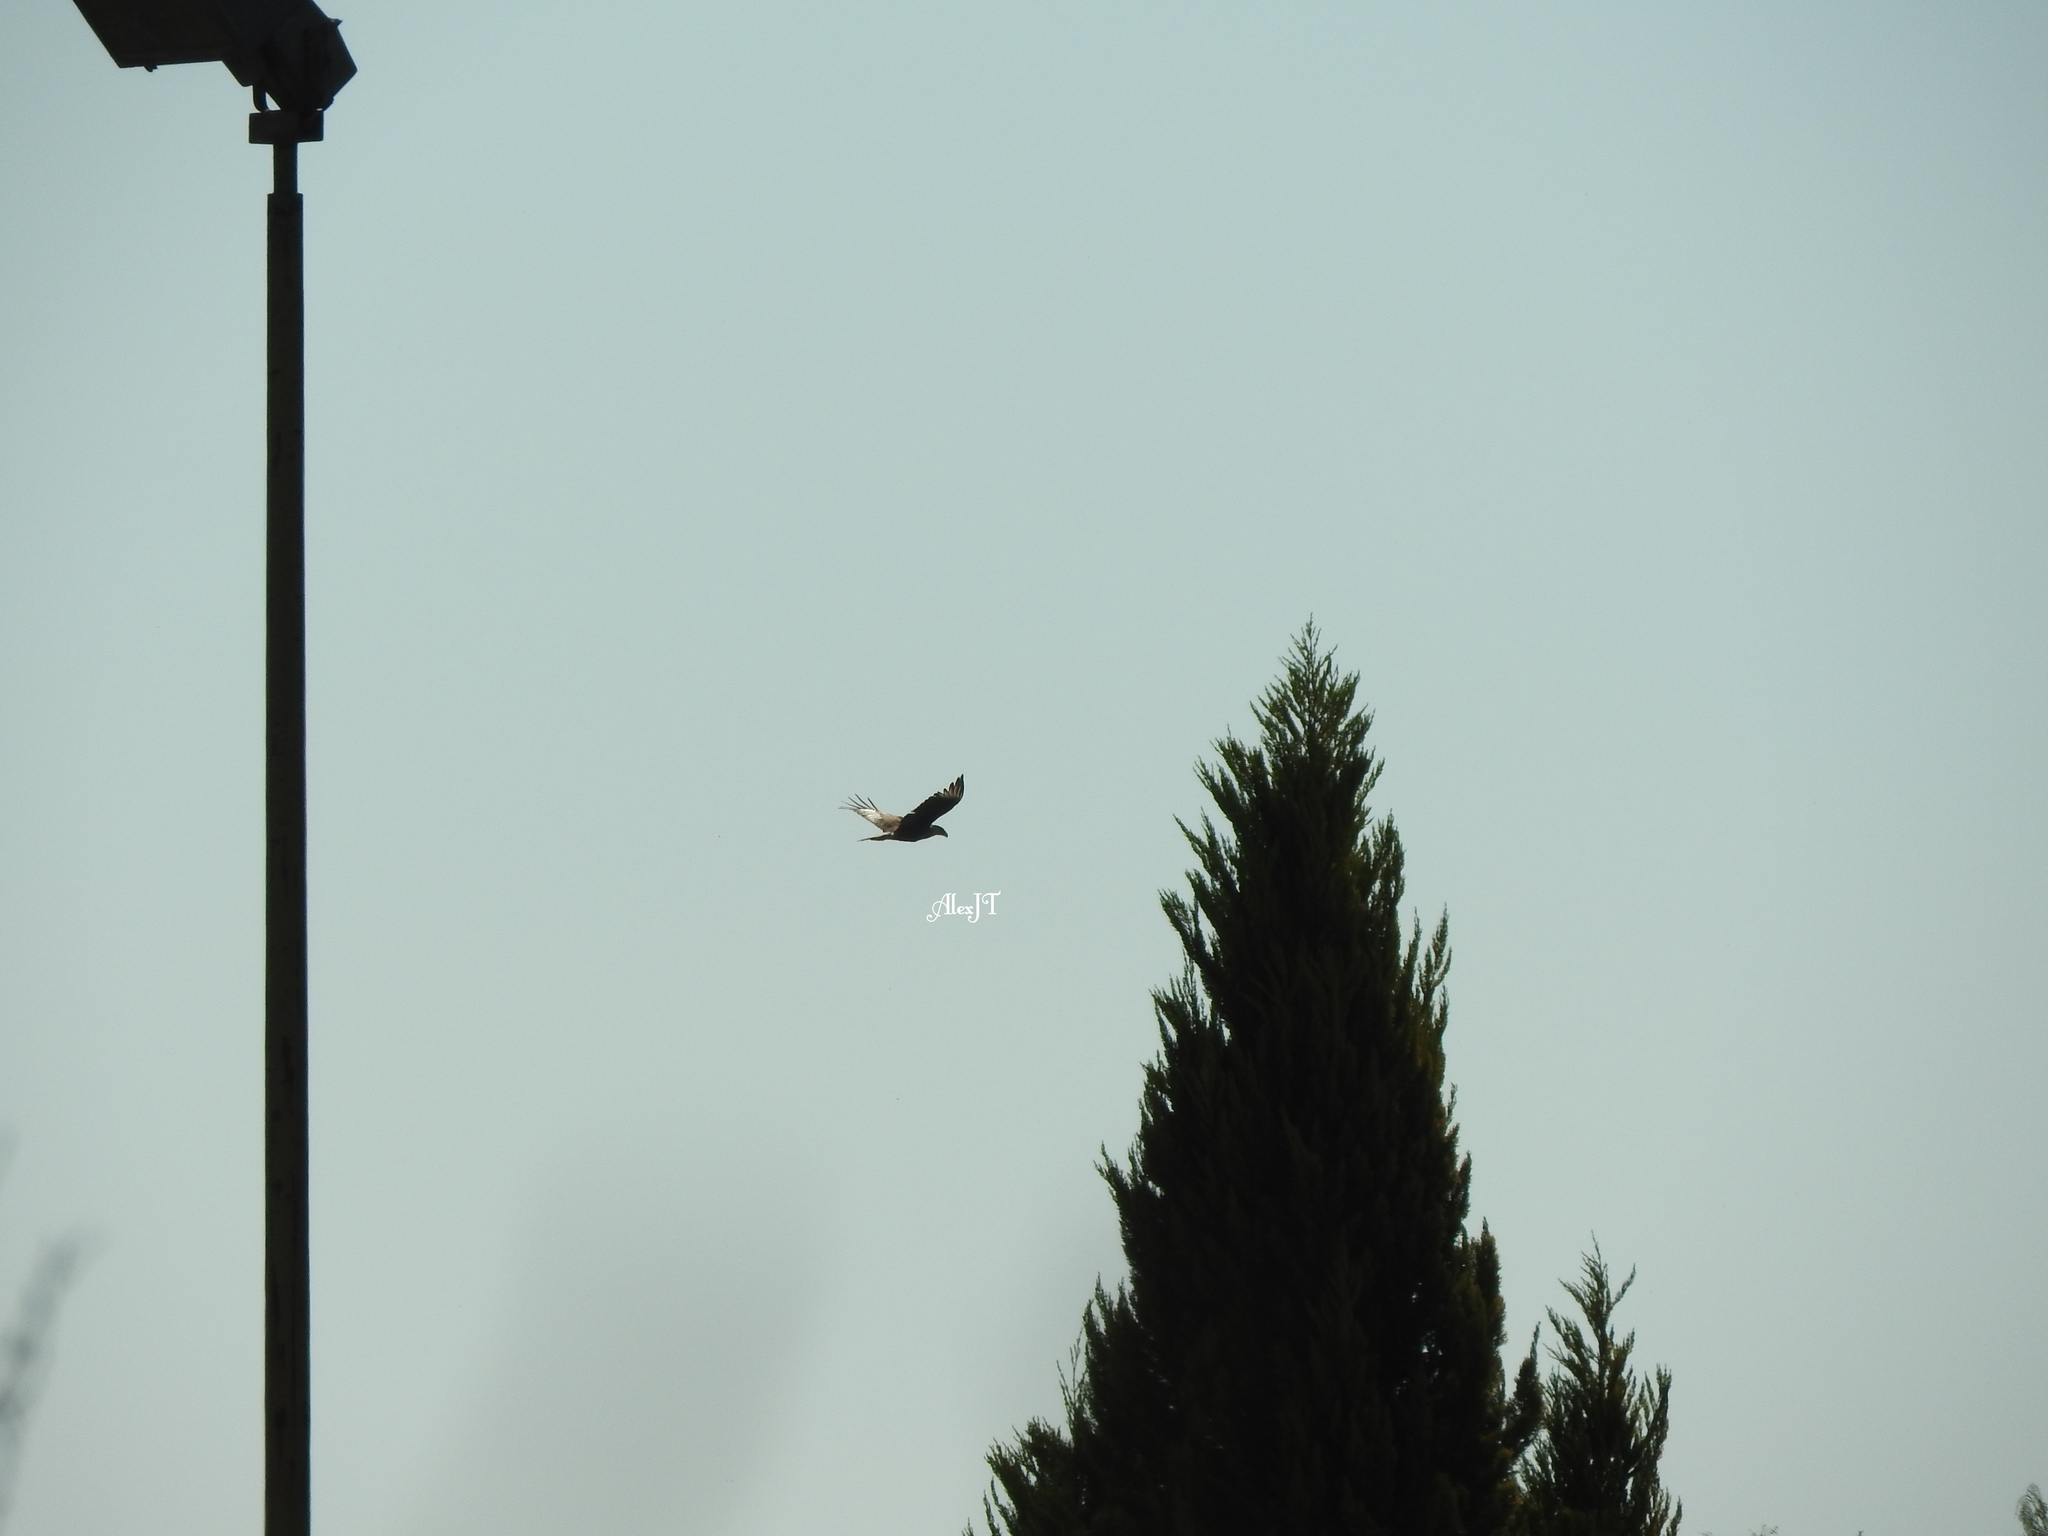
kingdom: Animalia
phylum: Chordata
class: Aves
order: Falconiformes
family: Falconidae
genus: Caracara
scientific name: Caracara plancus
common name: Southern caracara
